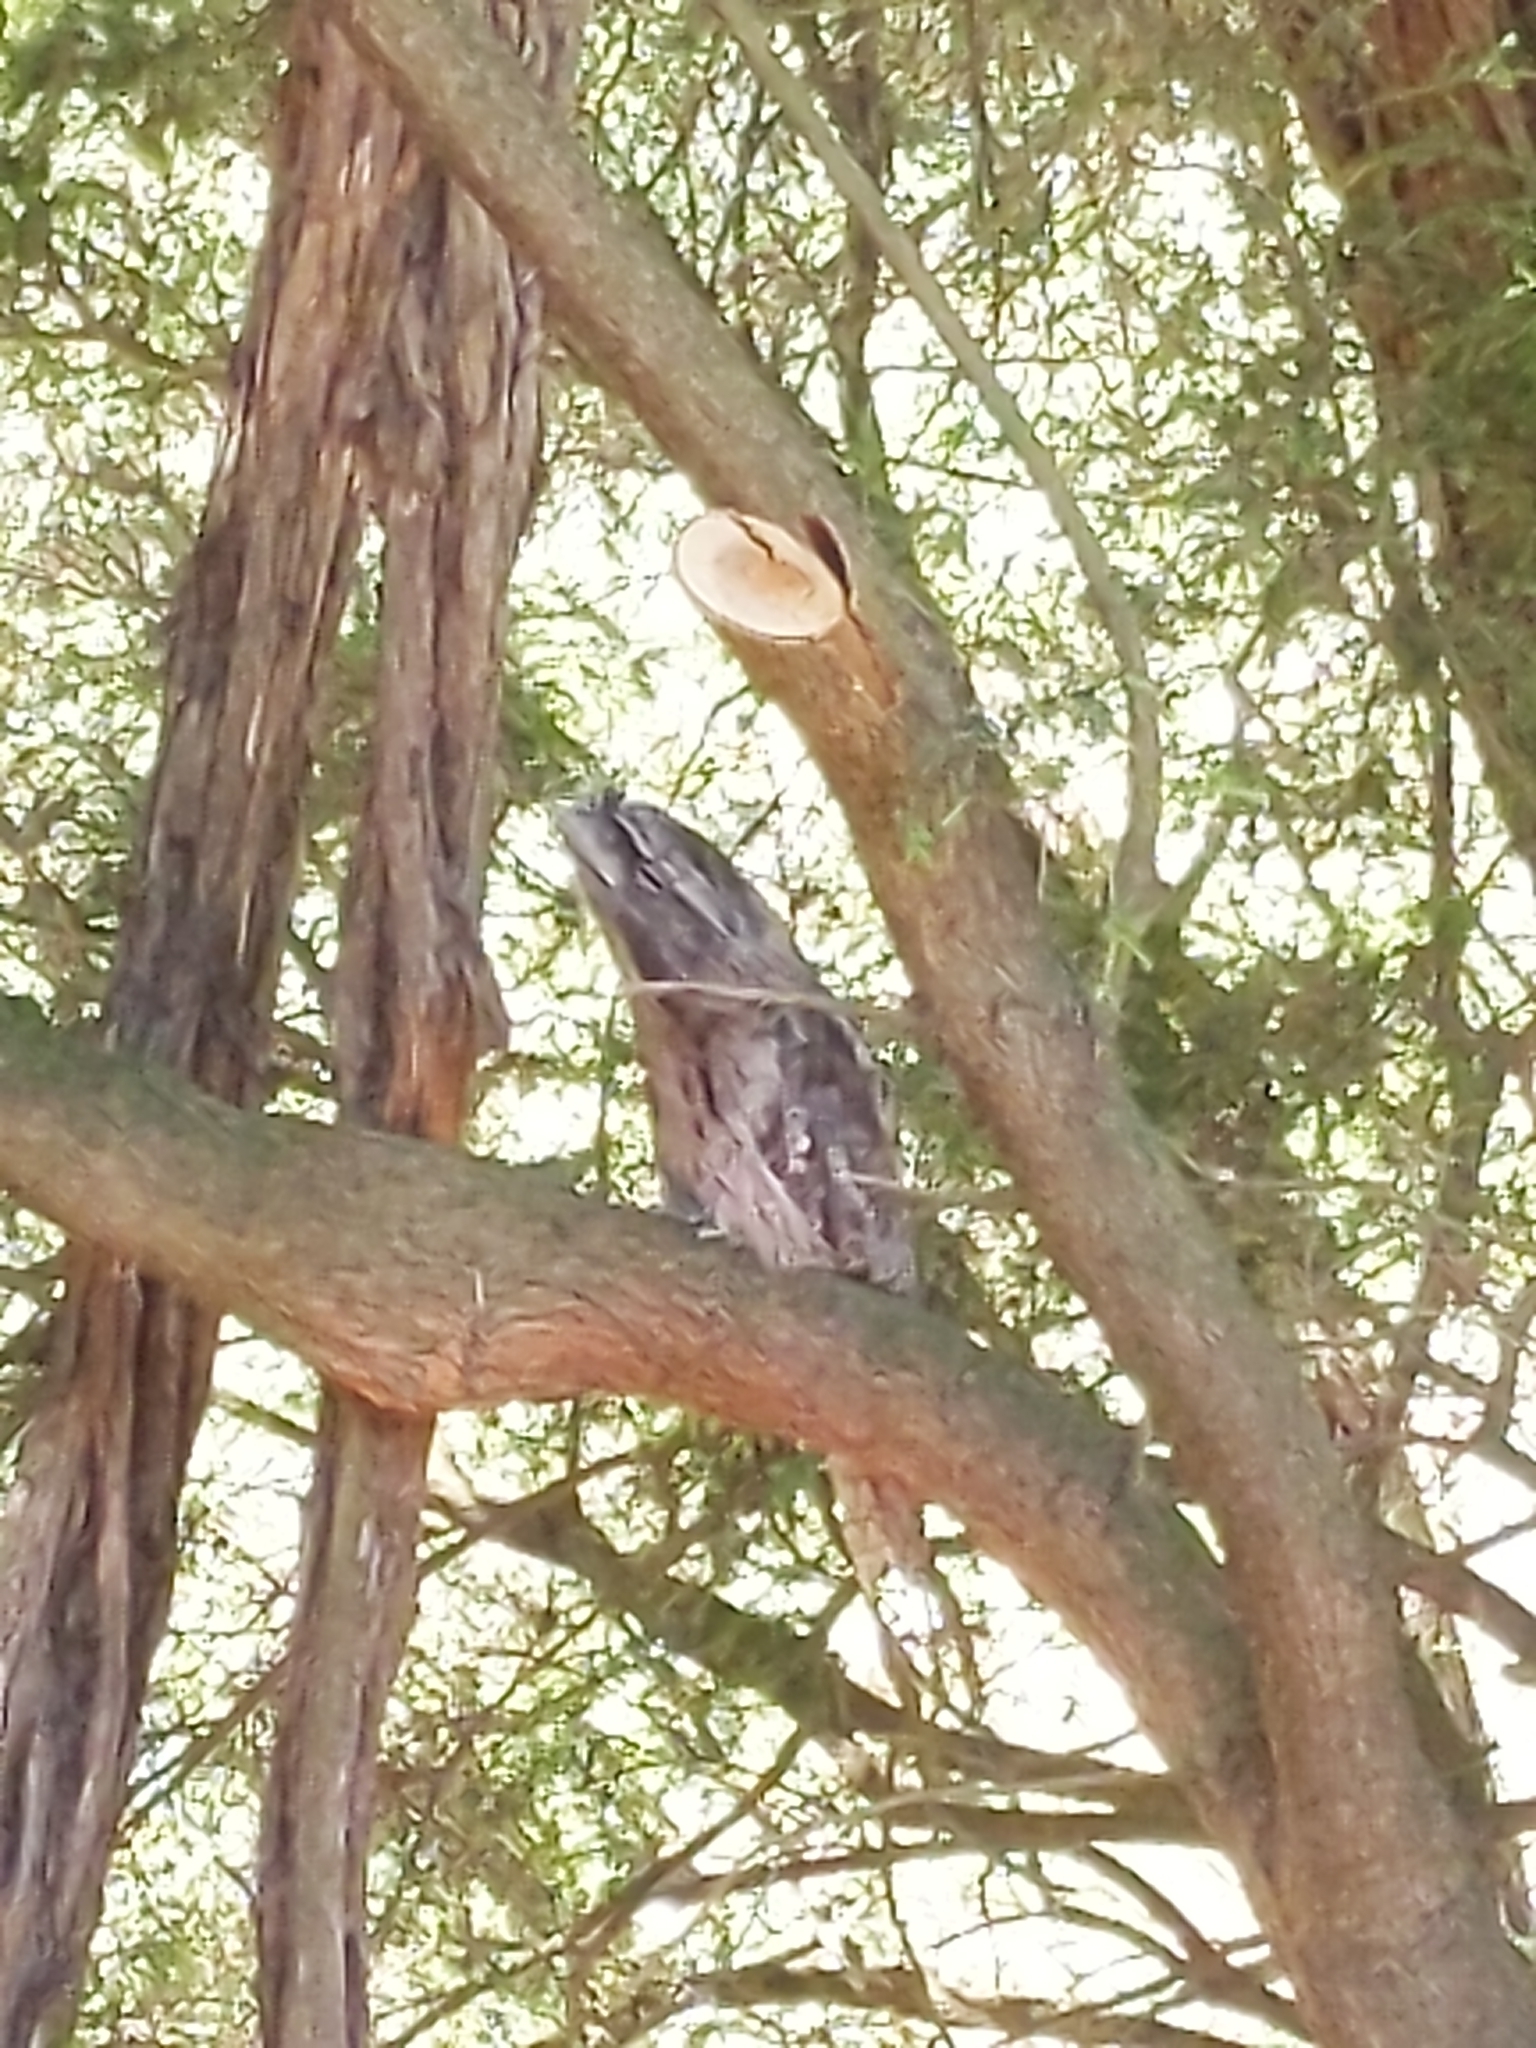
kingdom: Animalia
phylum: Chordata
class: Aves
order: Caprimulgiformes
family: Podargidae
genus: Podargus
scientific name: Podargus strigoides
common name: Tawny frogmouth
